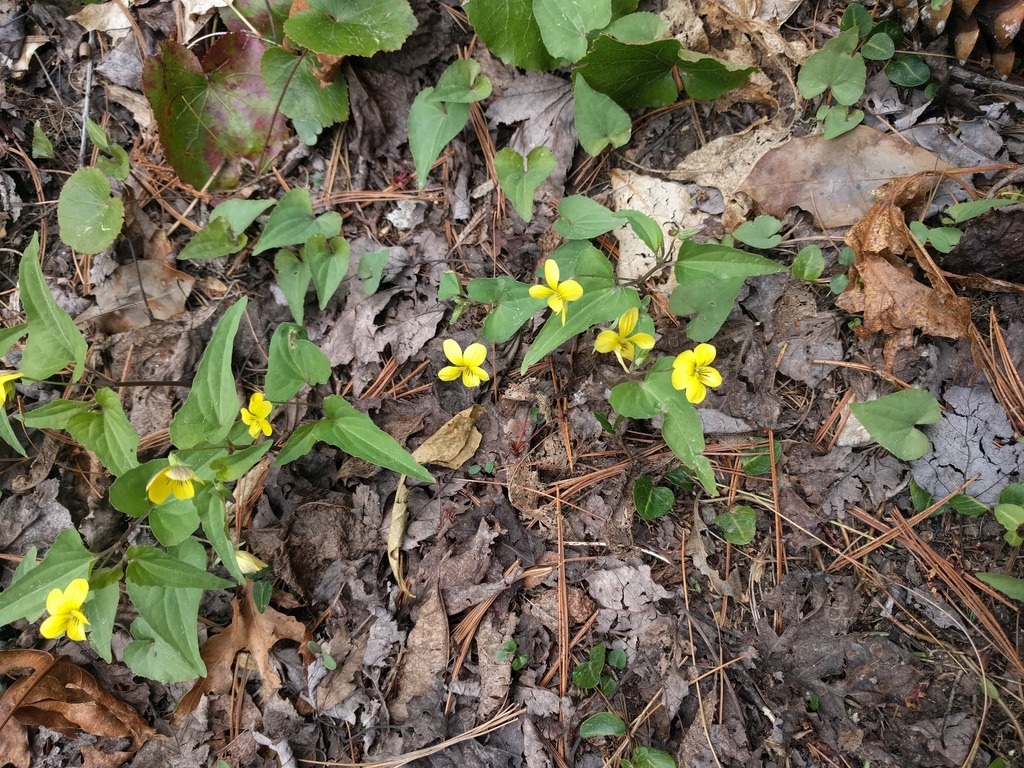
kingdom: Plantae
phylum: Tracheophyta
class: Magnoliopsida
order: Malpighiales
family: Violaceae
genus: Viola
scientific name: Viola hastata
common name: Spear-leaf violet
